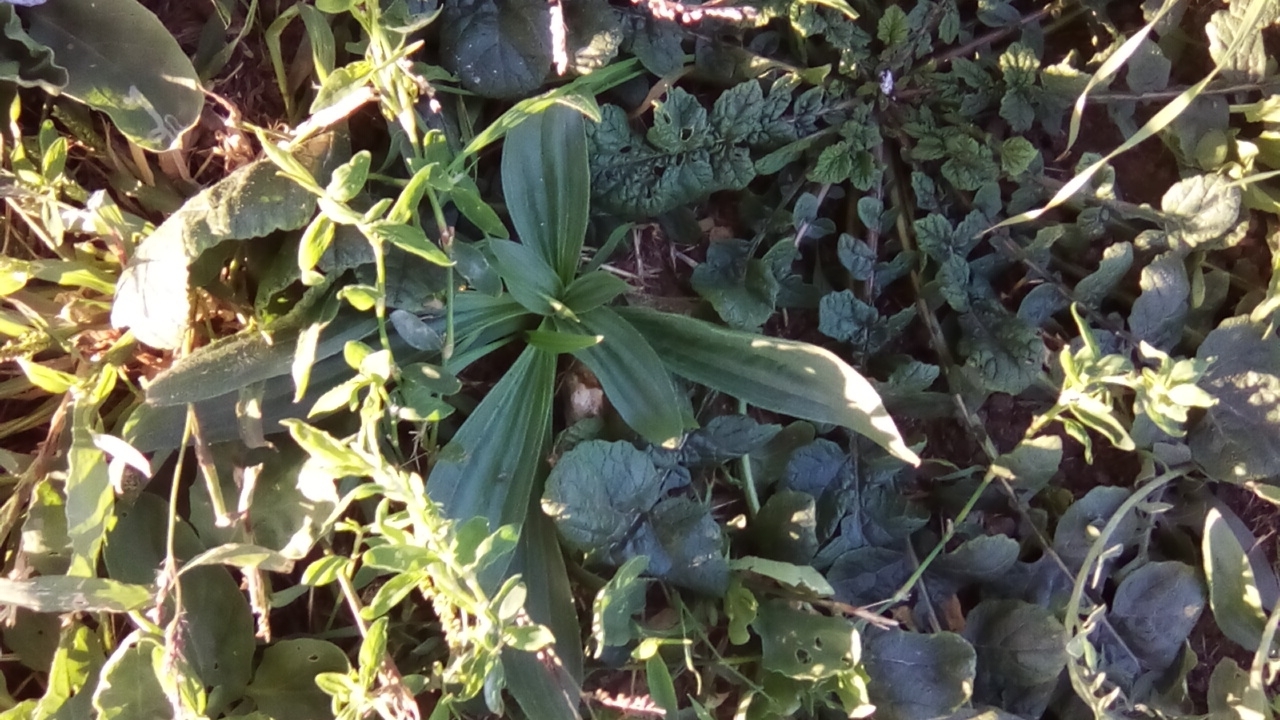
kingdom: Plantae
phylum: Tracheophyta
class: Magnoliopsida
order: Lamiales
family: Plantaginaceae
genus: Plantago
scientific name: Plantago lanceolata
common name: Ribwort plantain
